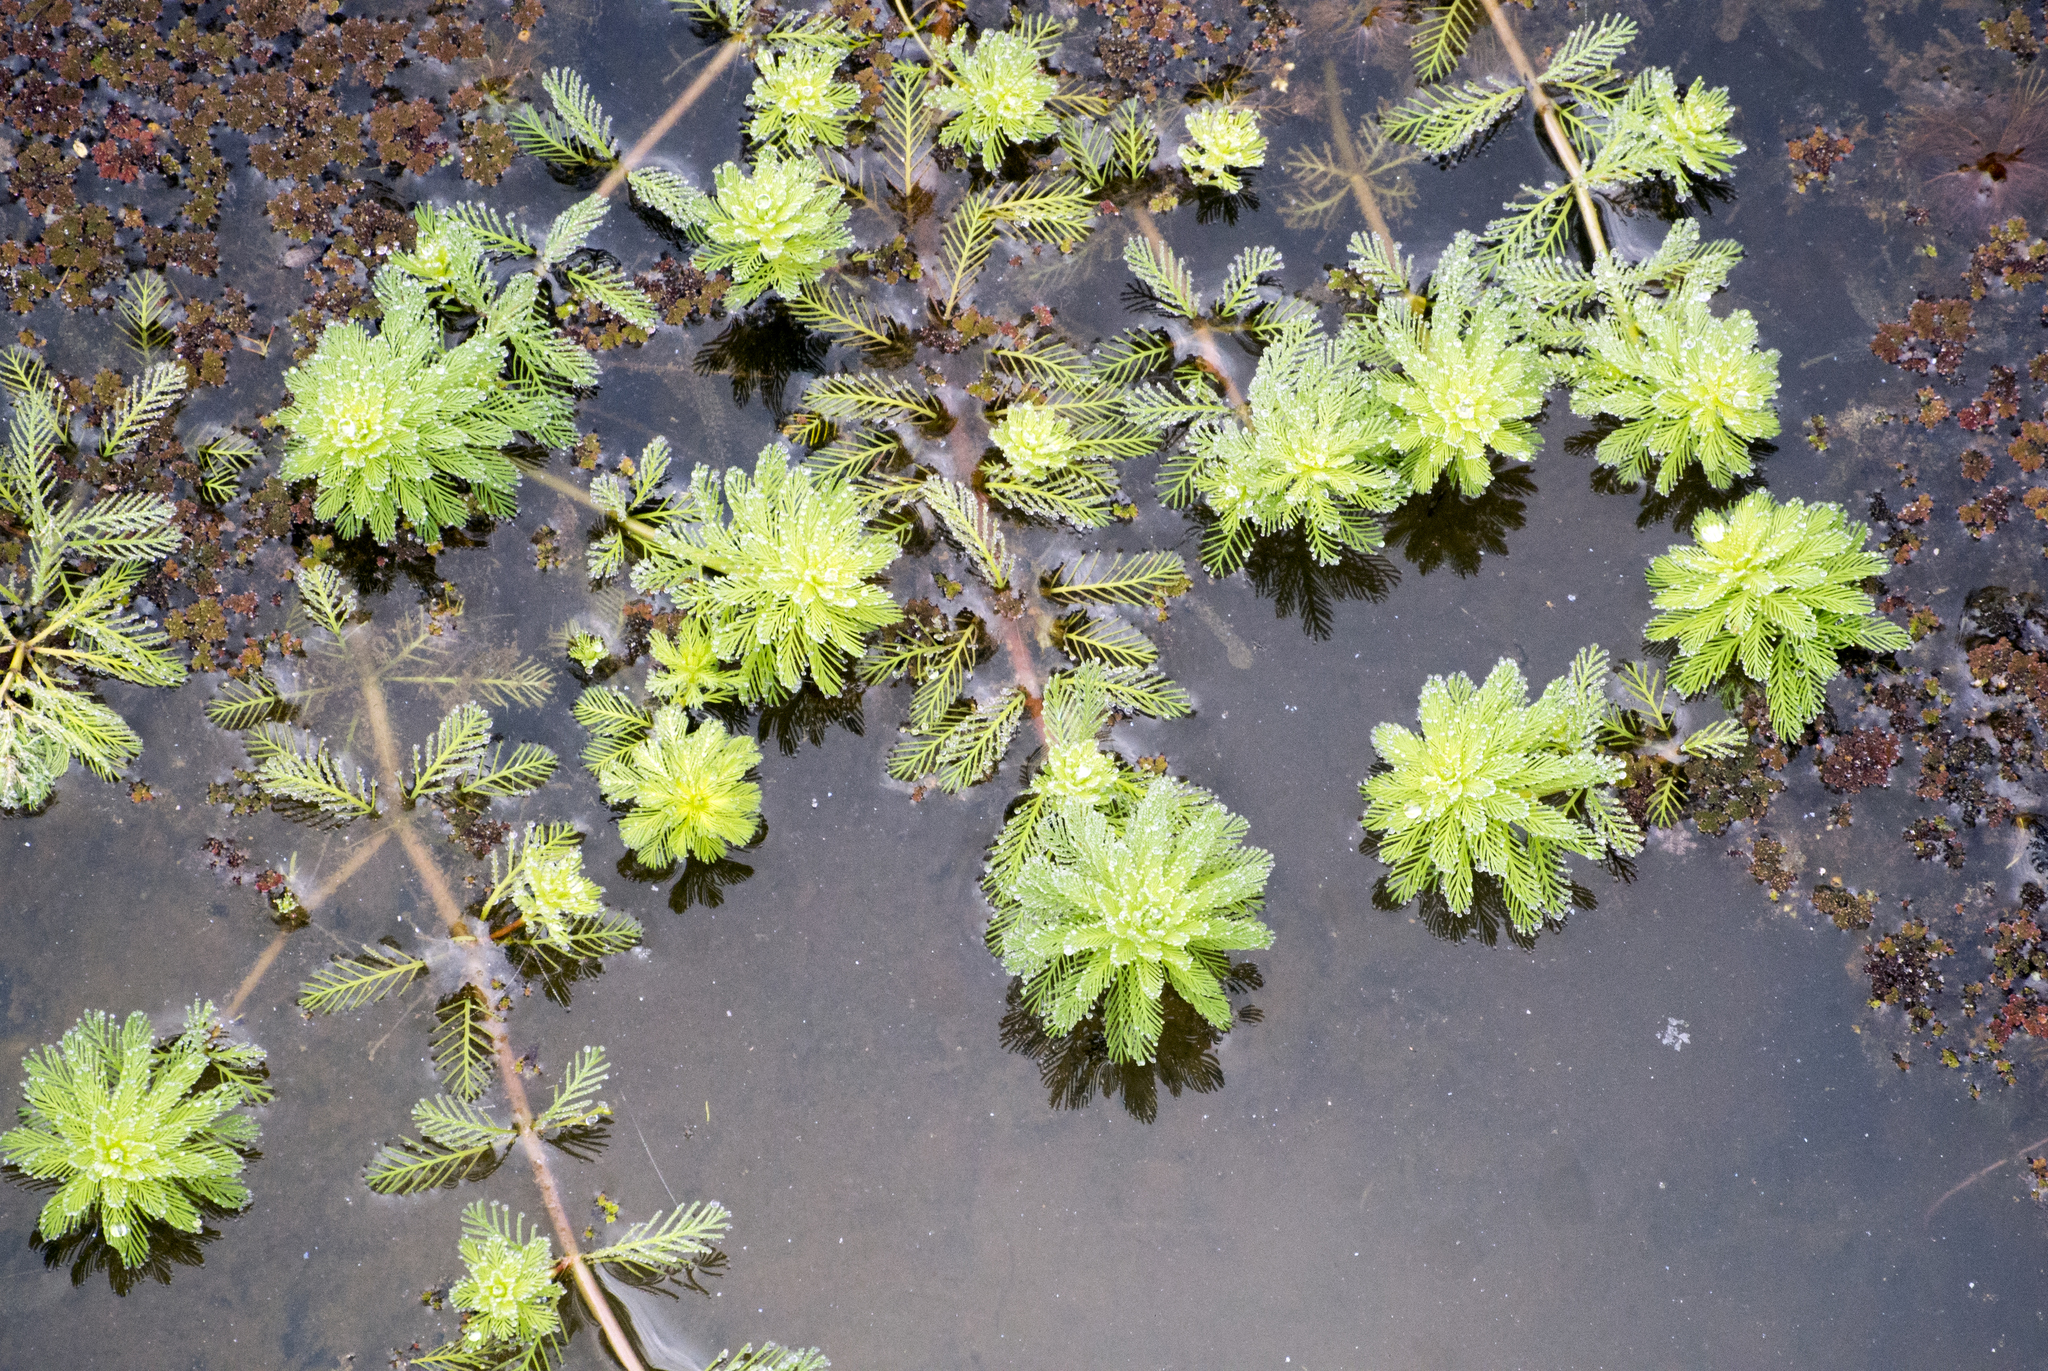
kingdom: Plantae
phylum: Tracheophyta
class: Magnoliopsida
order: Saxifragales
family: Haloragaceae
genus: Myriophyllum
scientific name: Myriophyllum aquaticum
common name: Parrot's feather
